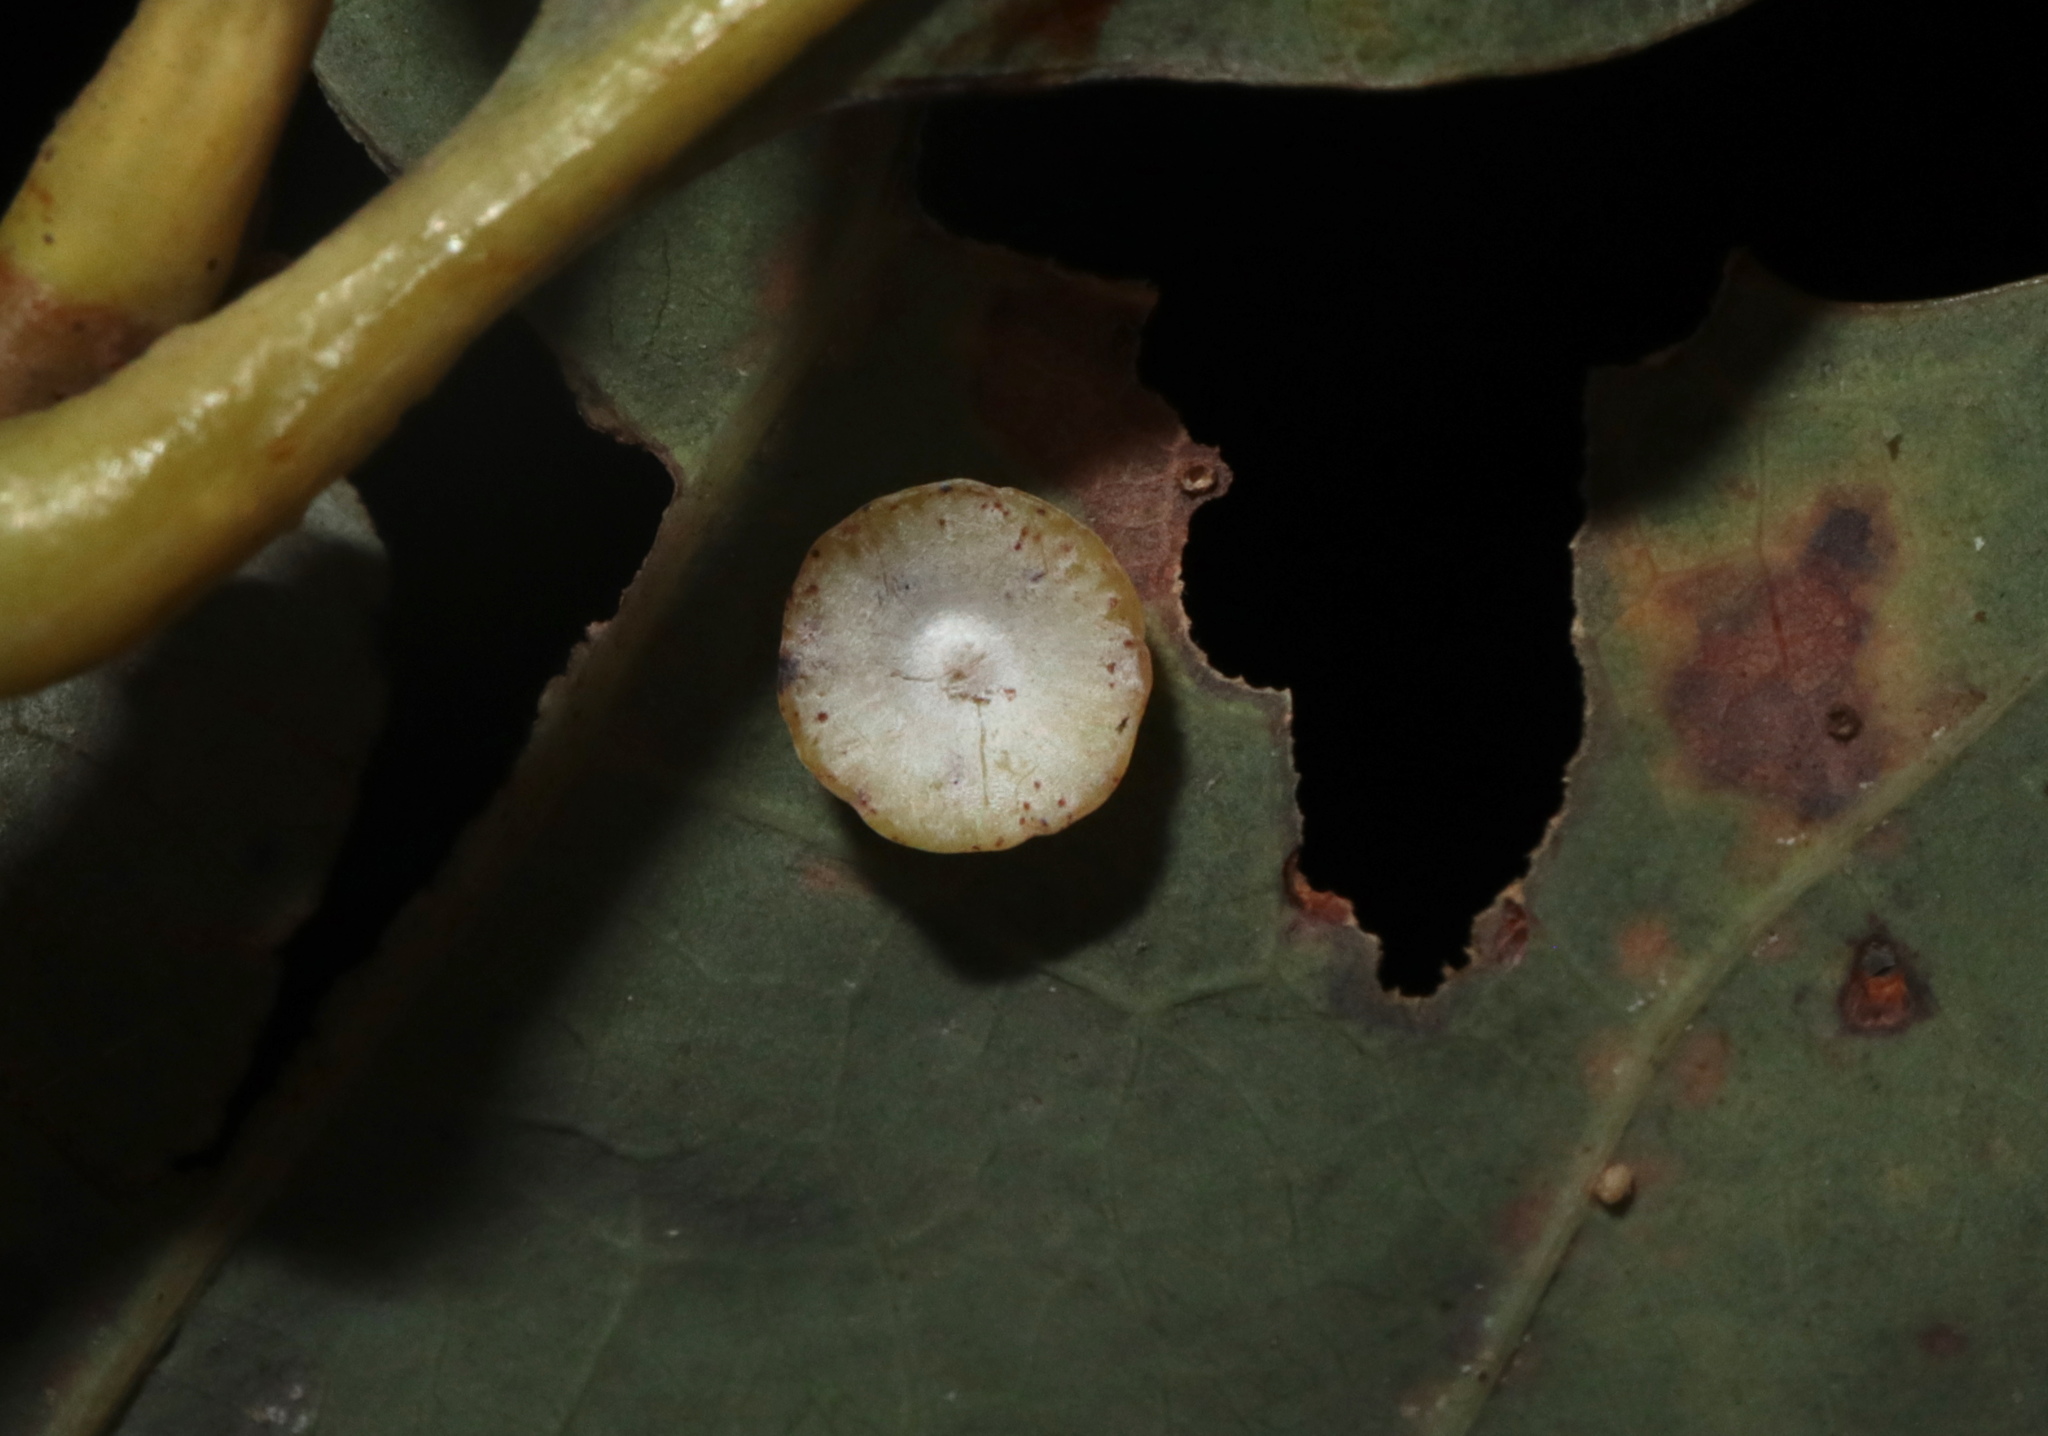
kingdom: Animalia
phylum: Arthropoda
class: Insecta
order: Hymenoptera
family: Cynipidae
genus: Phylloteras
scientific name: Phylloteras poculum
